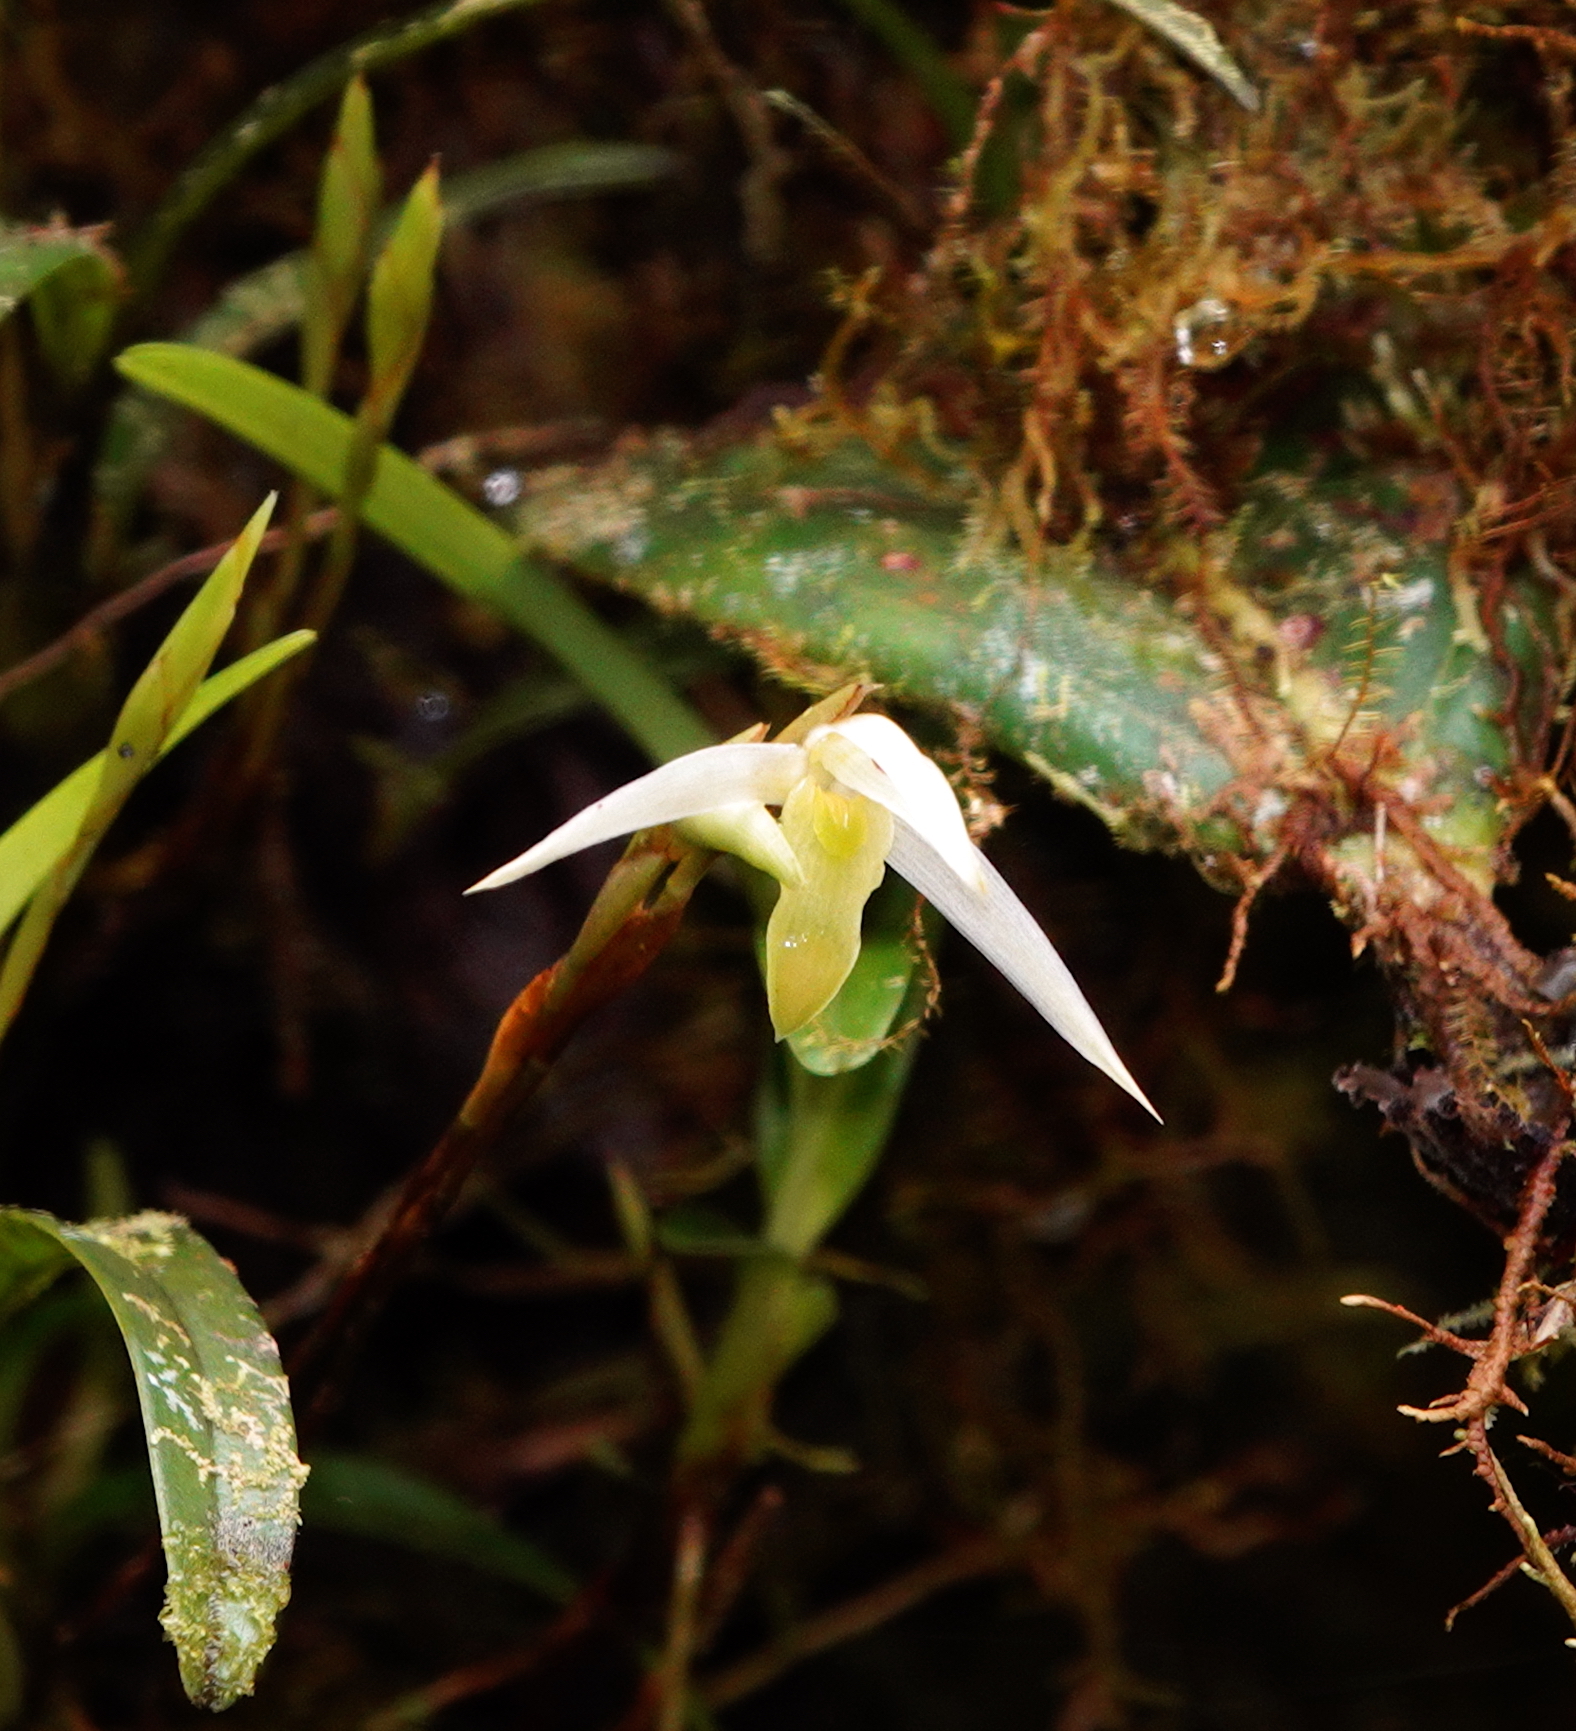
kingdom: Plantae
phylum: Tracheophyta
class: Liliopsida
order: Asparagales
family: Orchidaceae
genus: Maxillaria
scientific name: Maxillaria acuminata
